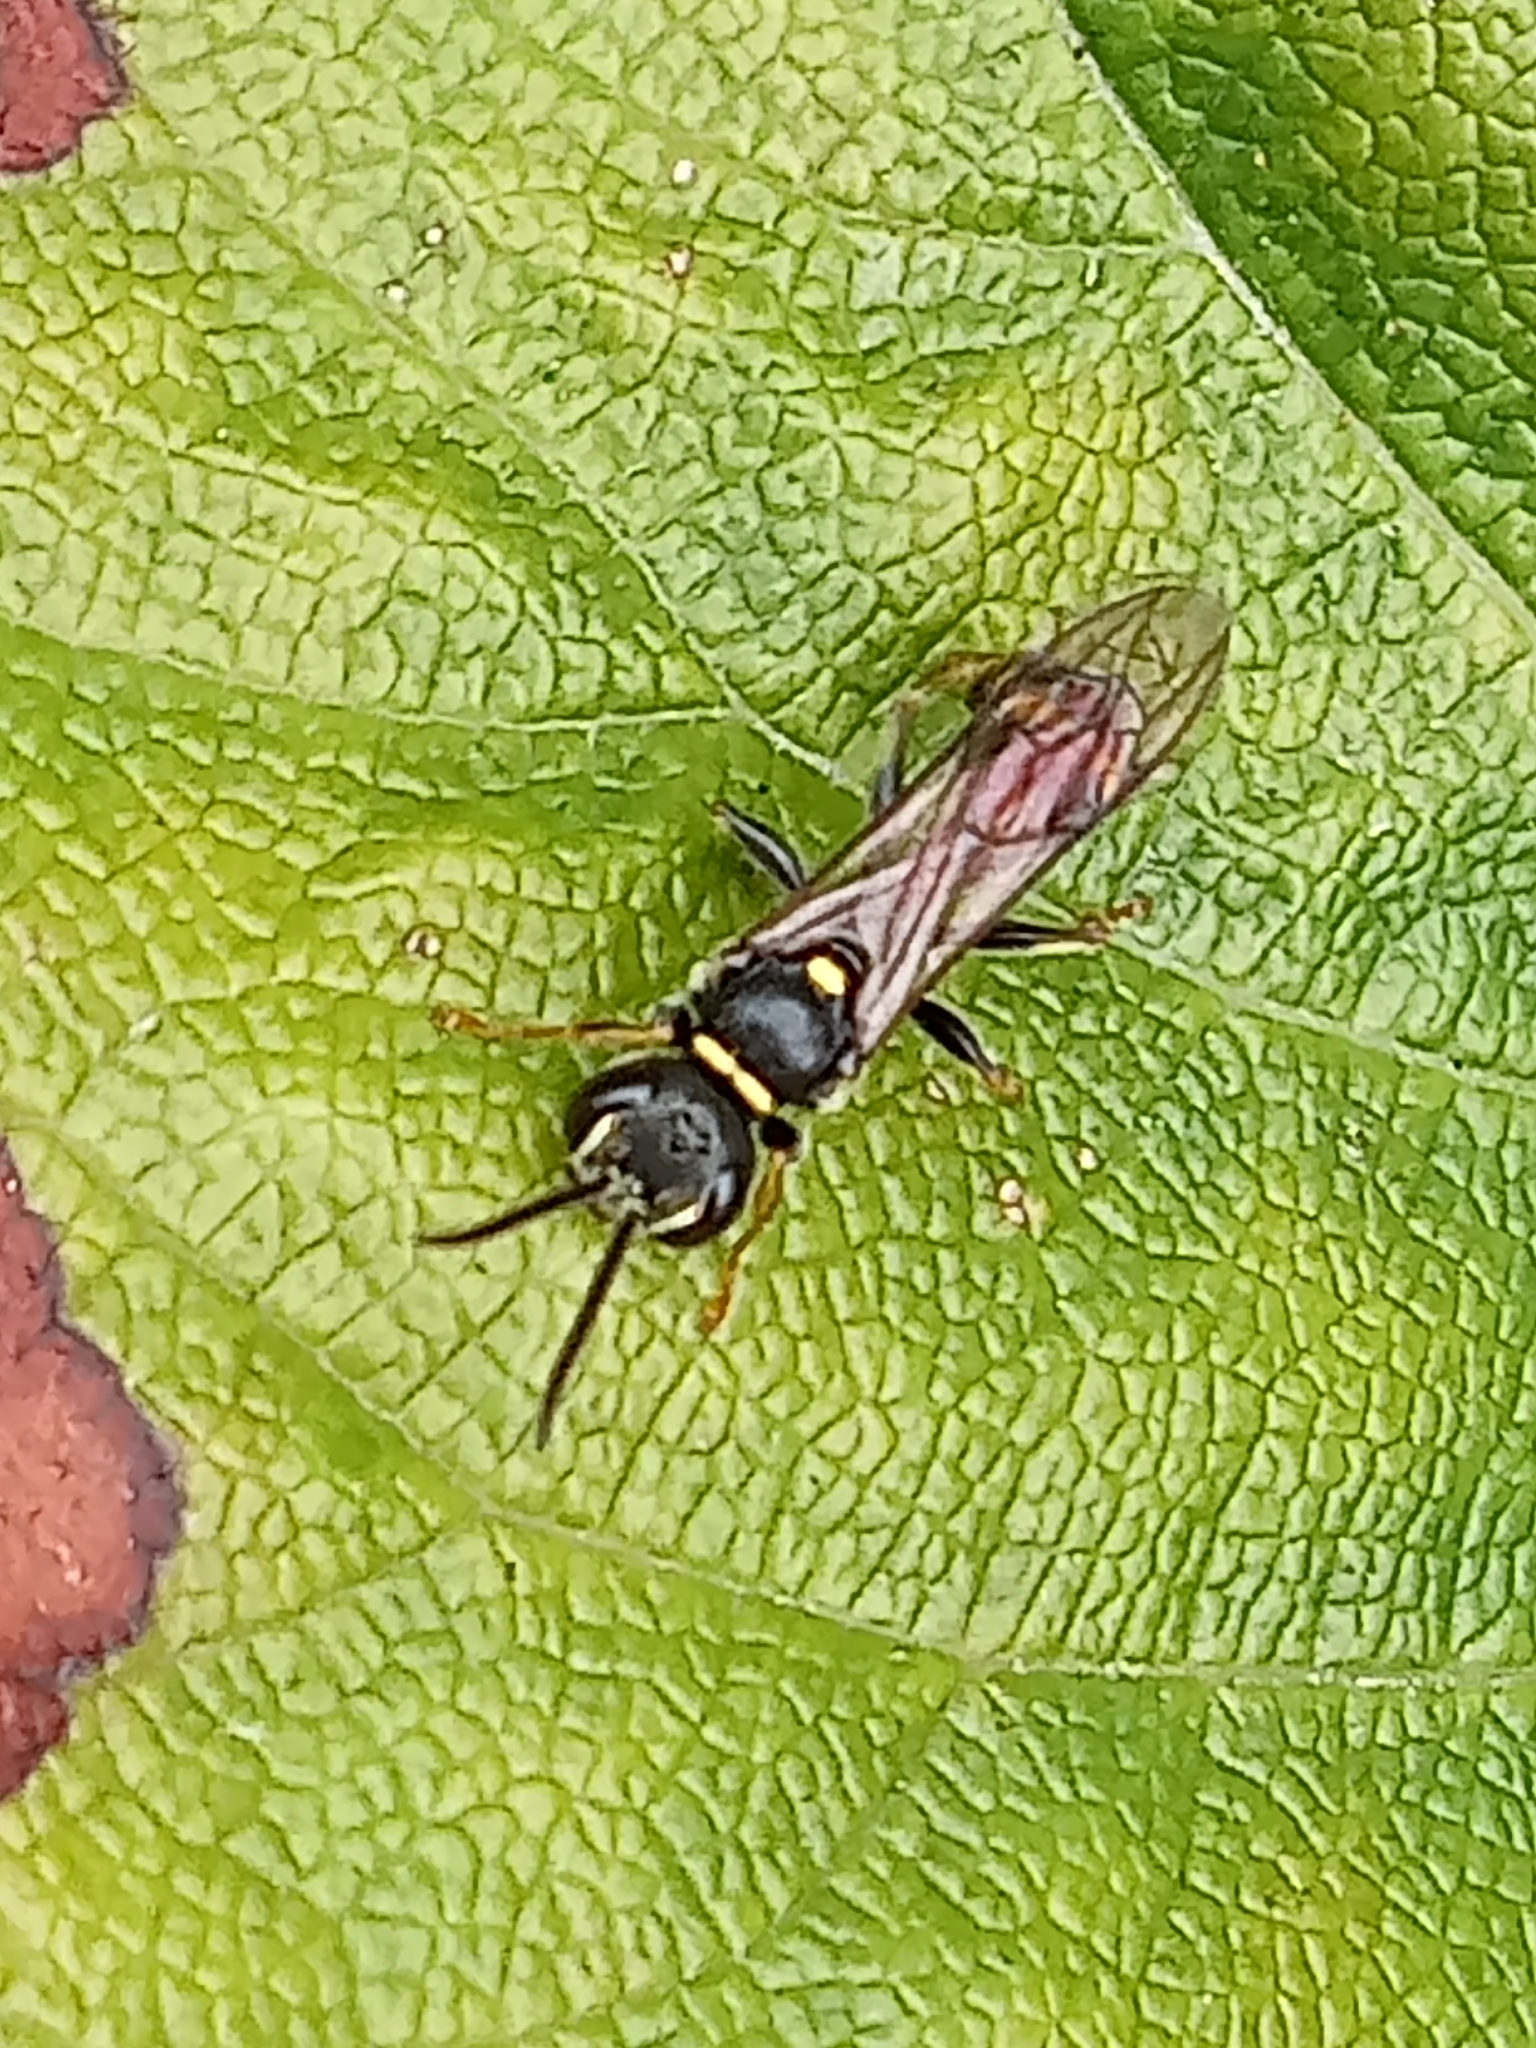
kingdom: Animalia
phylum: Arthropoda
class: Insecta
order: Hymenoptera
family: Crabronidae
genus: Mellinus
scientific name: Mellinus arvensis
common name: Field digger wasp
